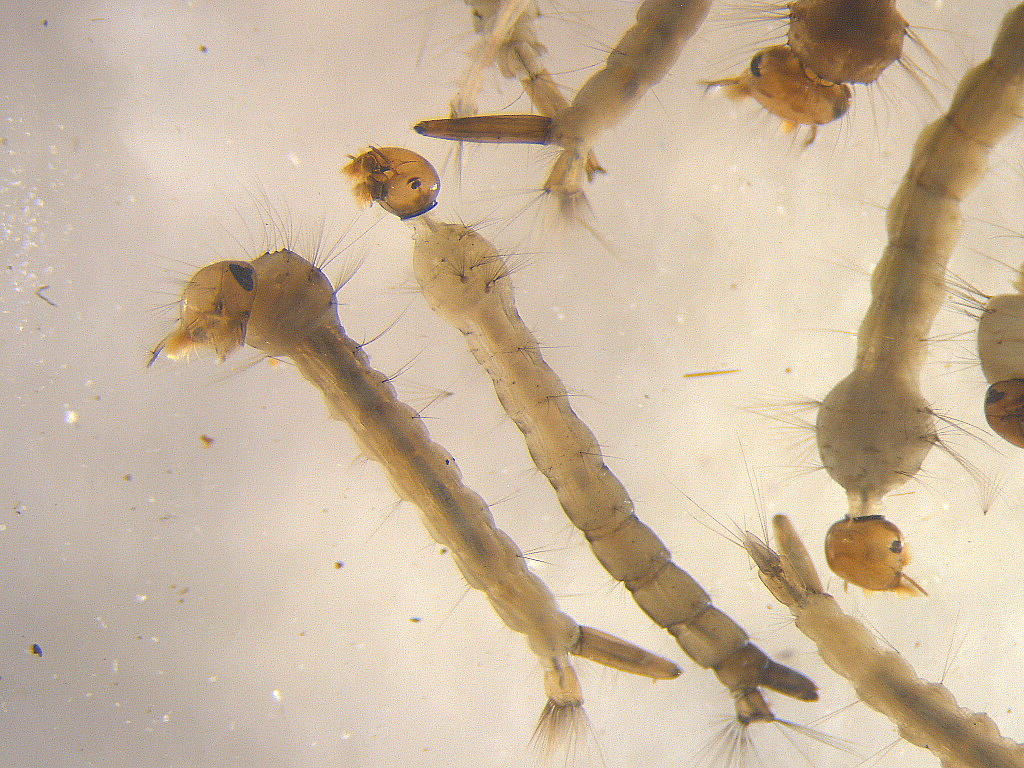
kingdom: Animalia
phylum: Arthropoda
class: Insecta
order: Diptera
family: Culicidae
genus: Aedes
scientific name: Aedes notoscriptus
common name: Australian backyard mosquito
